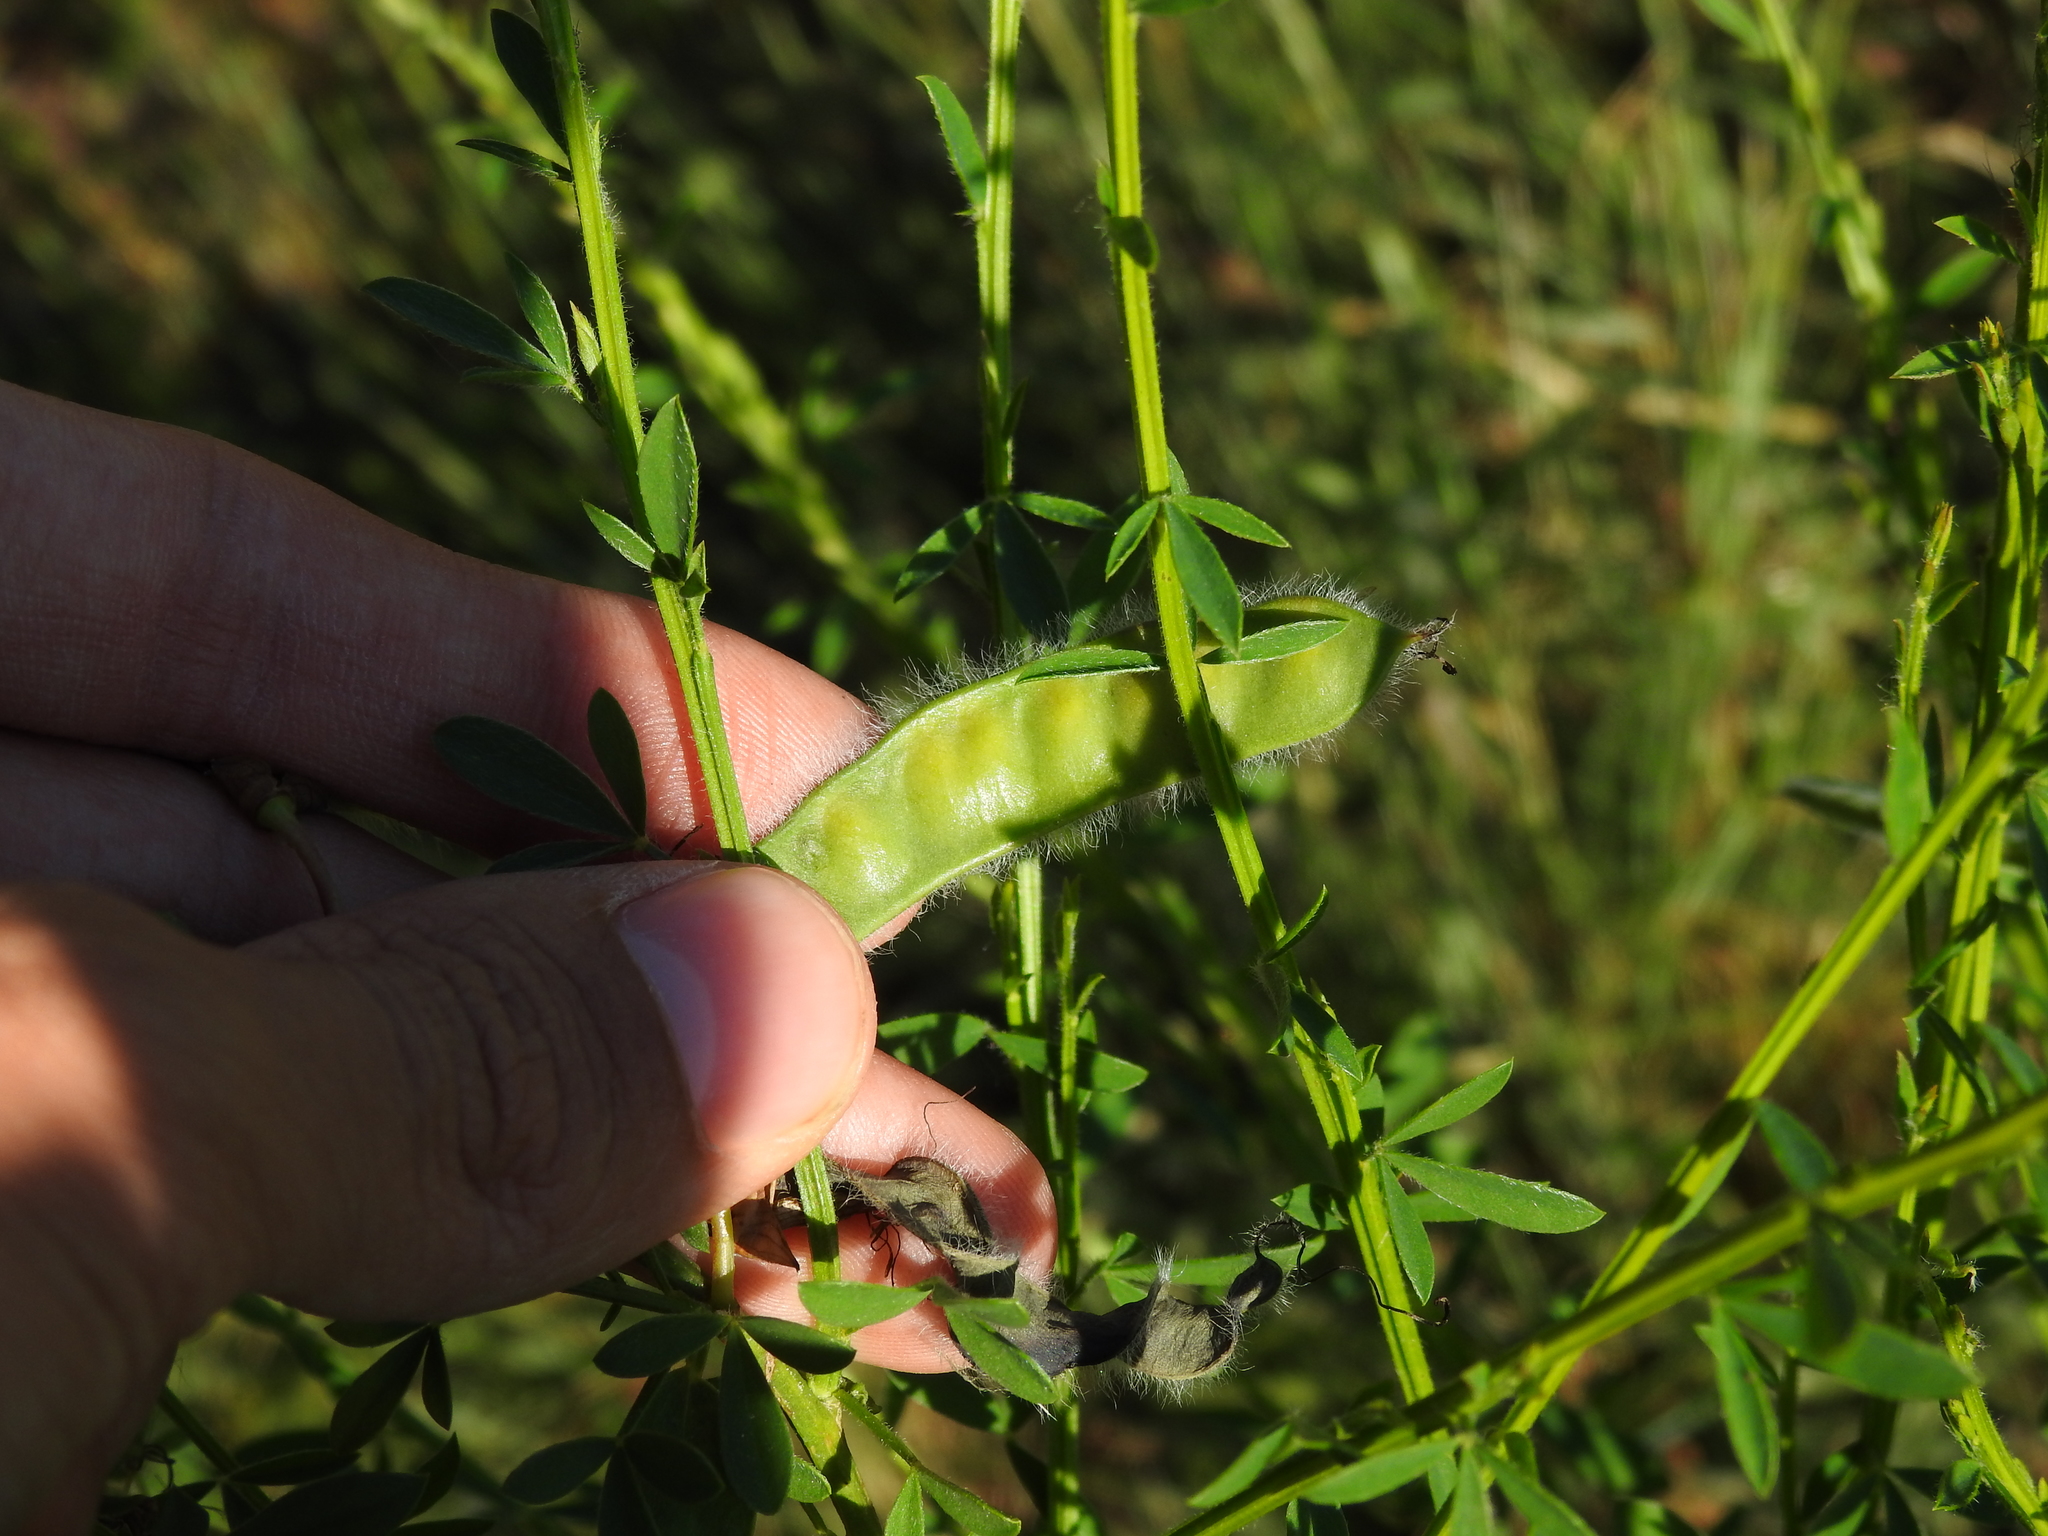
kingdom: Plantae
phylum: Tracheophyta
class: Magnoliopsida
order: Fabales
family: Fabaceae
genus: Cytisus
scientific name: Cytisus scoparius
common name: Scotch broom
